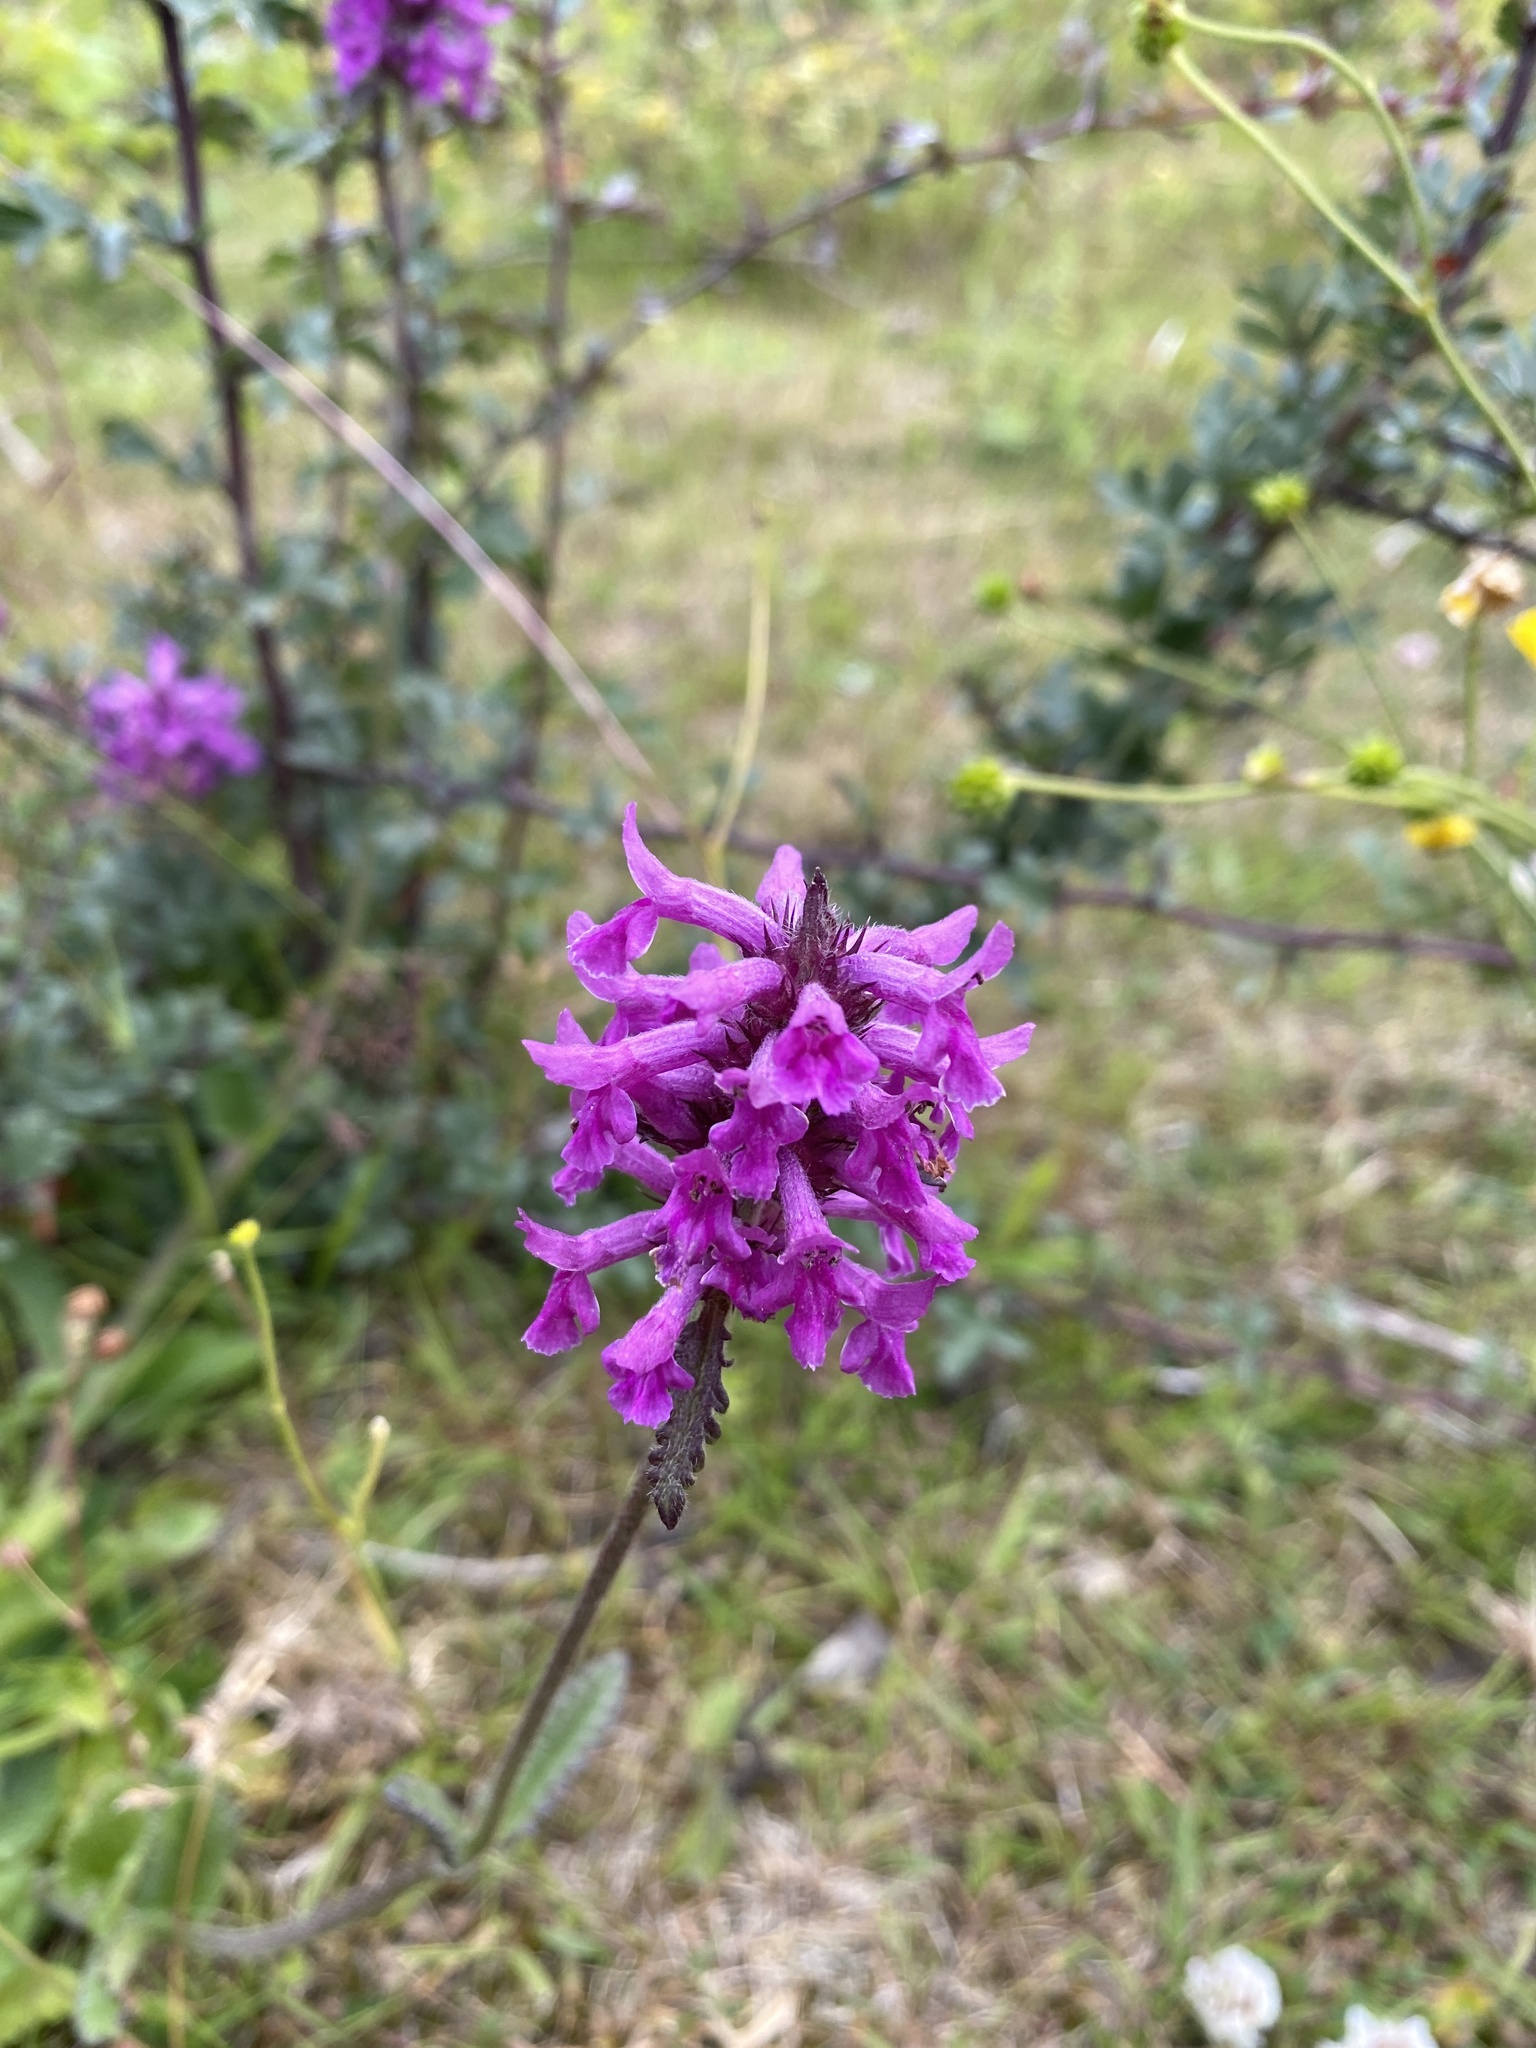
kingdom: Plantae
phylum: Tracheophyta
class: Magnoliopsida
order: Lamiales
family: Lamiaceae
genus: Betonica
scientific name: Betonica officinalis
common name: Bishop's-wort
